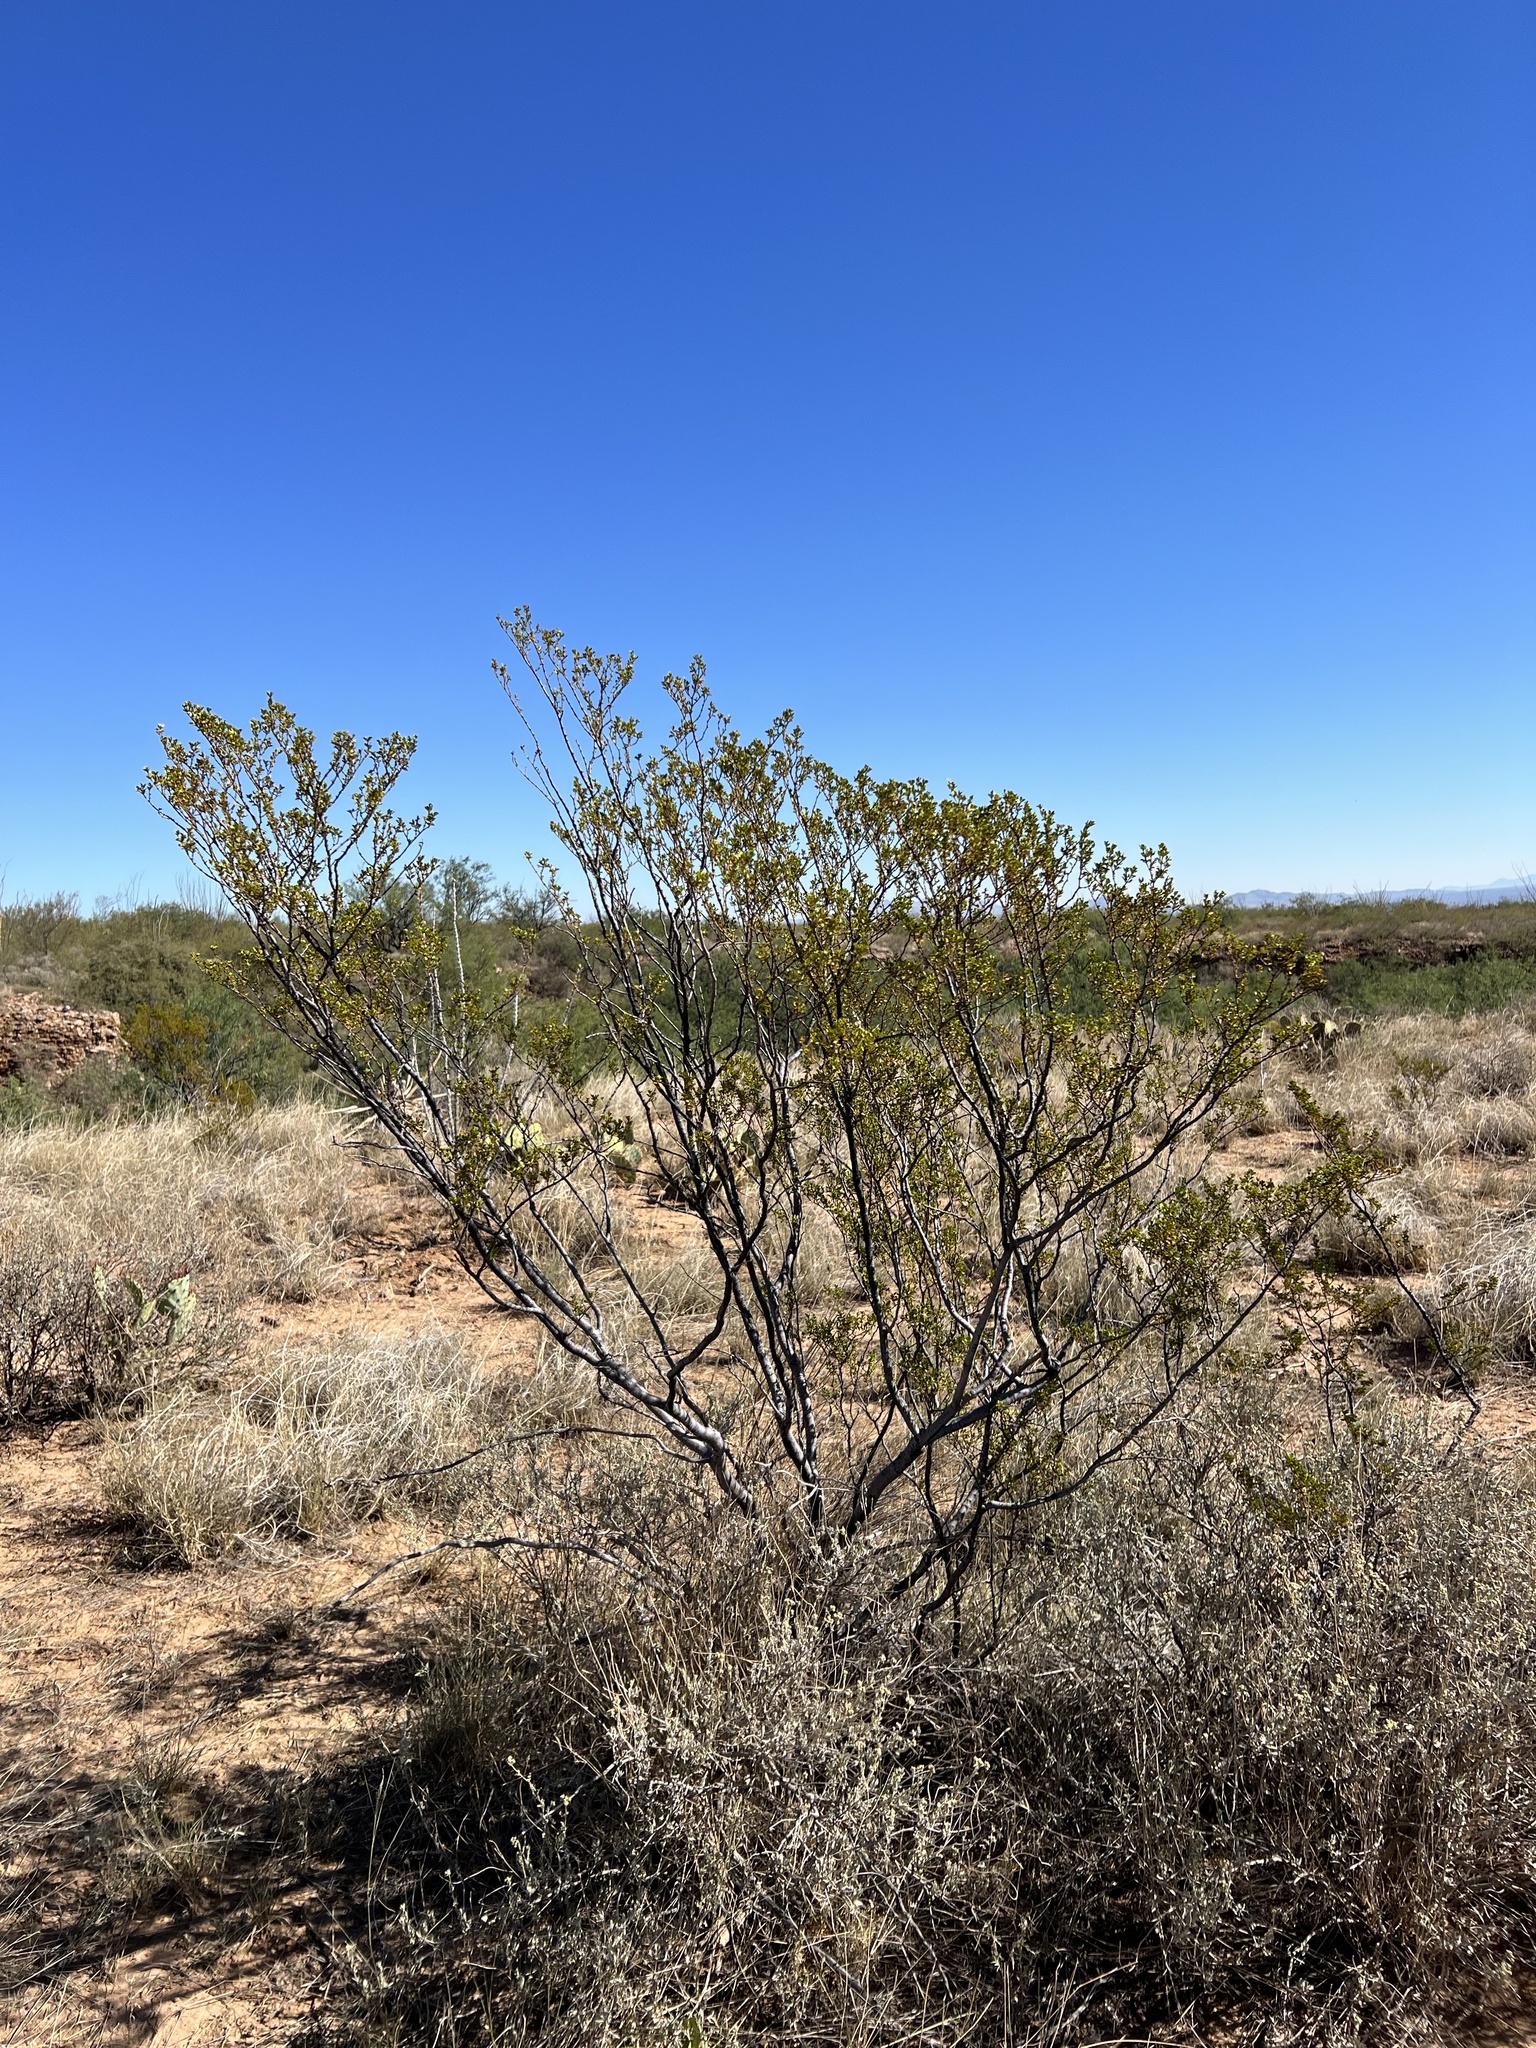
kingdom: Plantae
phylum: Tracheophyta
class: Magnoliopsida
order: Zygophyllales
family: Zygophyllaceae
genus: Larrea
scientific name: Larrea tridentata
